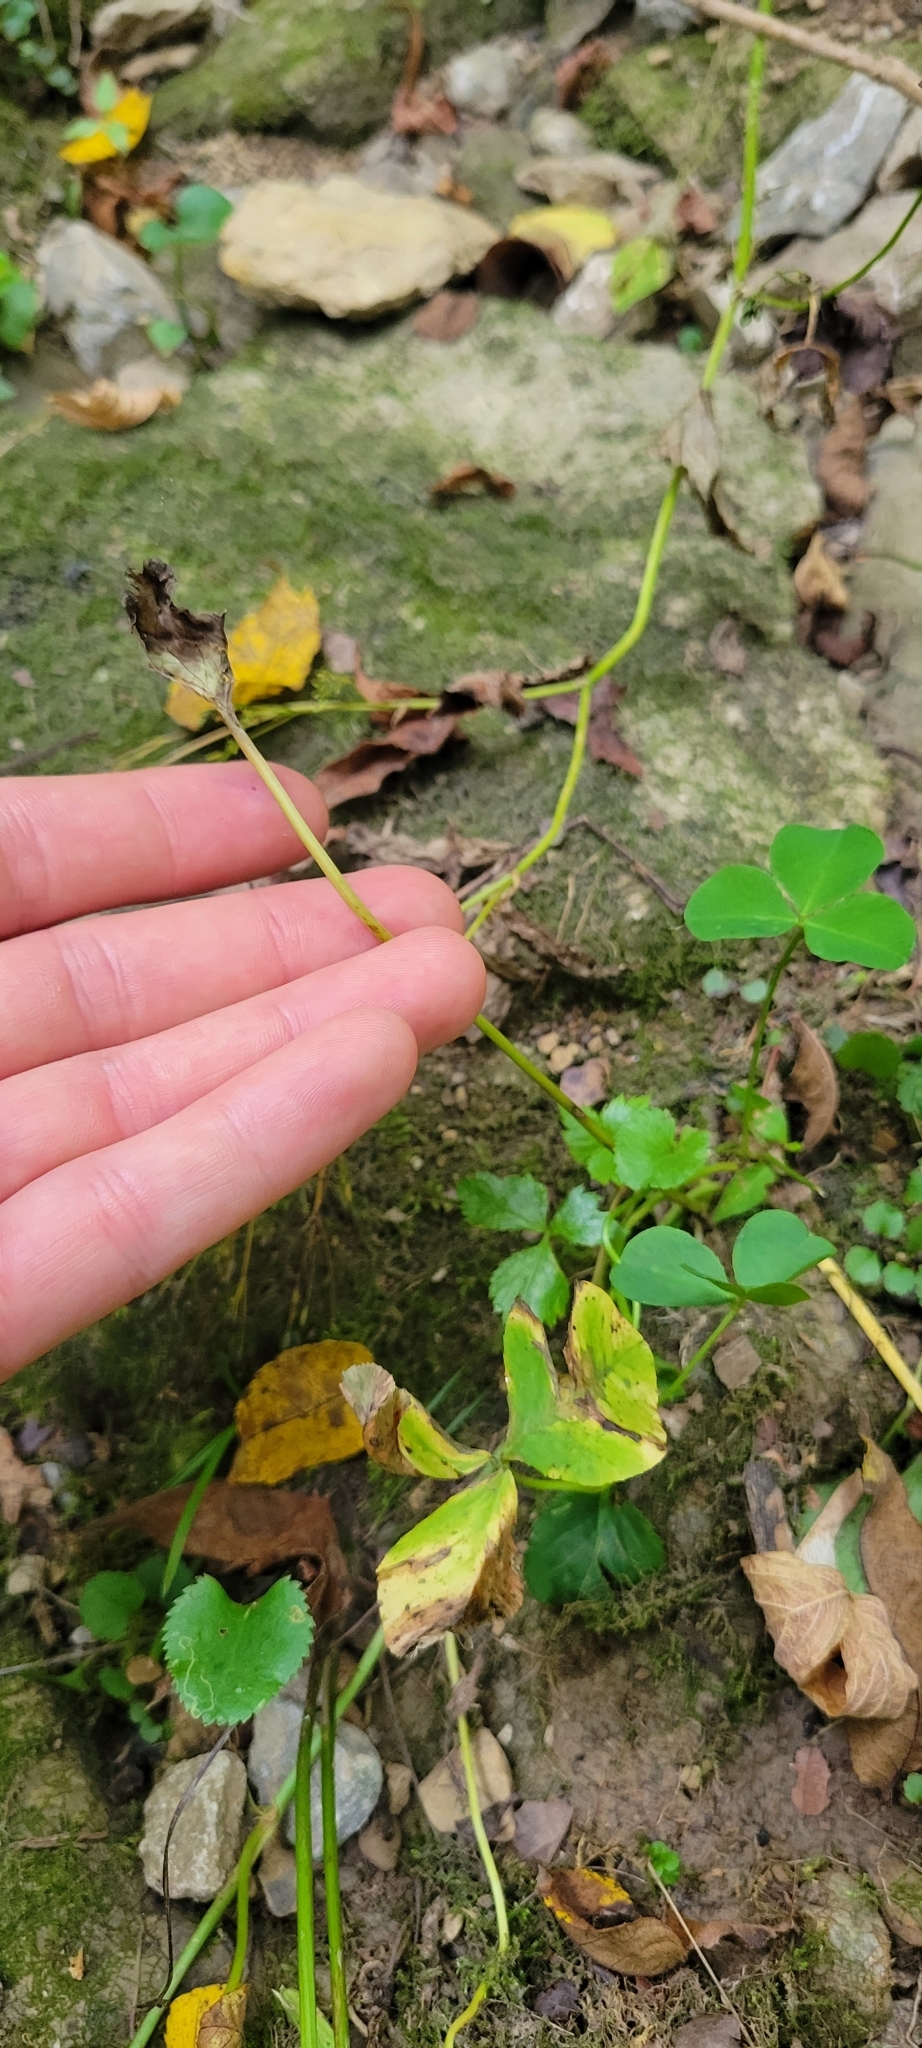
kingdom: Plantae
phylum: Tracheophyta
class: Magnoliopsida
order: Fabales
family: Fabaceae
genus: Trifolium
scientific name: Trifolium stoloniferum
